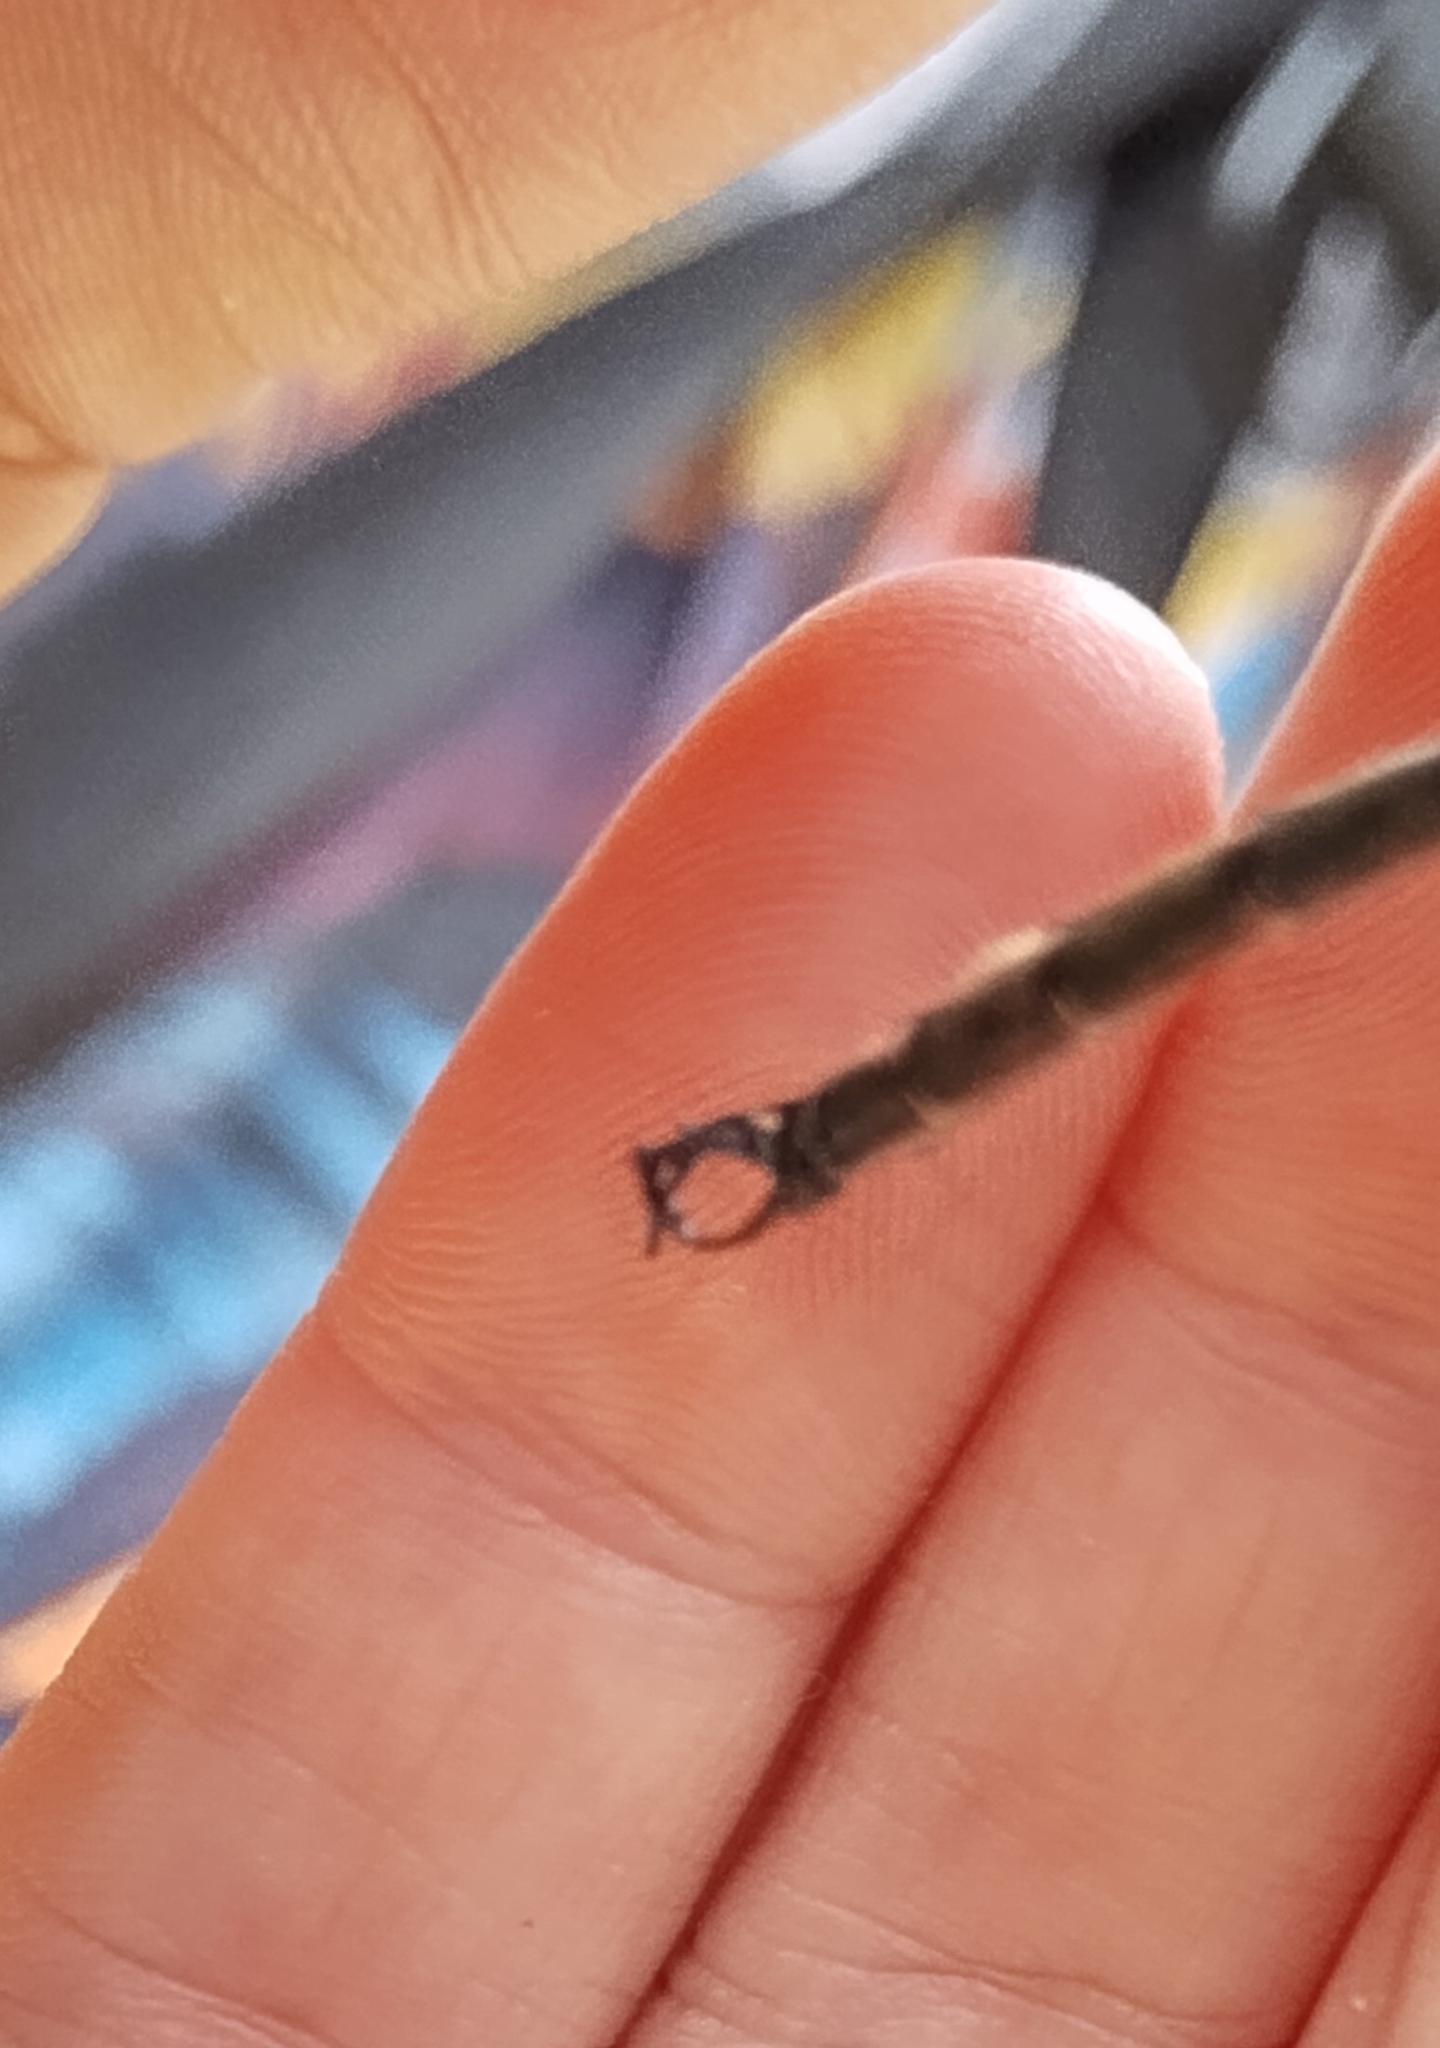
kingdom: Animalia
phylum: Arthropoda
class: Insecta
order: Odonata
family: Corduliidae
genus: Somatochlora
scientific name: Somatochlora tenebrosa
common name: Clamp-tipped emerald
